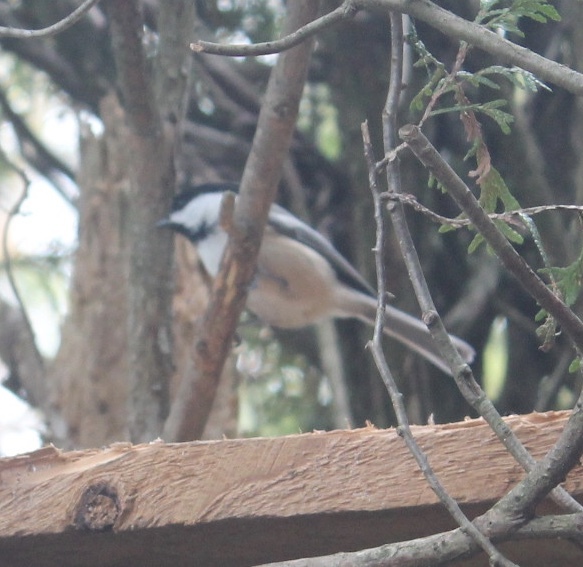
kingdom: Animalia
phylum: Chordata
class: Aves
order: Passeriformes
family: Paridae
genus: Poecile
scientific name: Poecile atricapillus
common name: Black-capped chickadee
